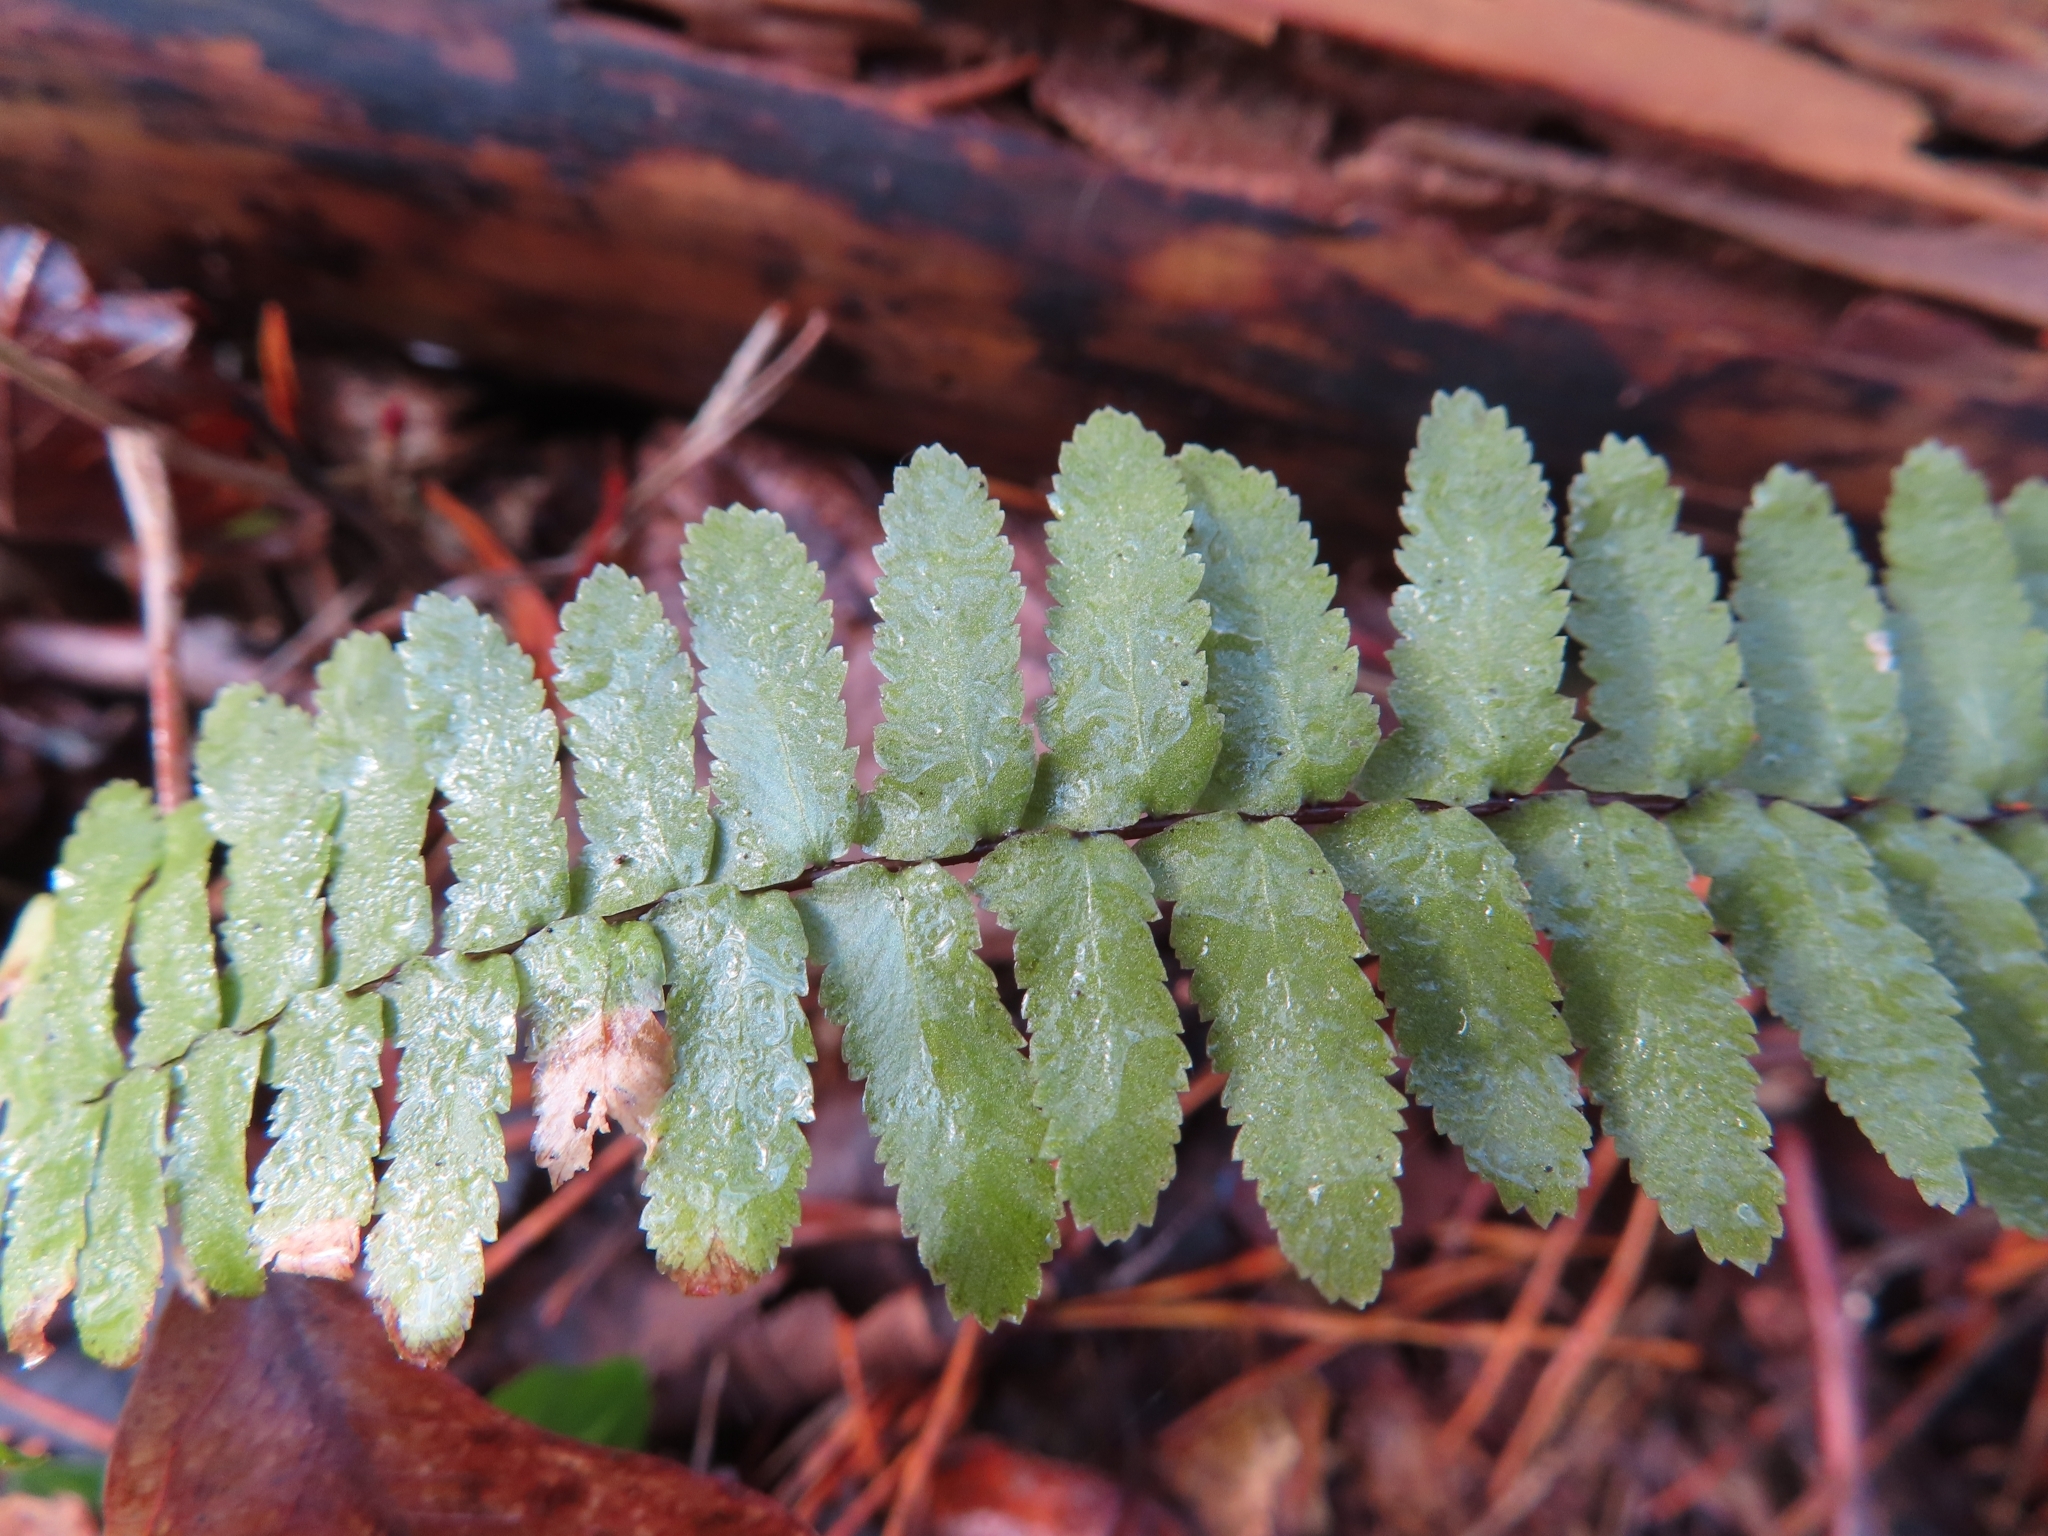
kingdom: Plantae
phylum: Tracheophyta
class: Polypodiopsida
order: Polypodiales
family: Aspleniaceae
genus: Asplenium
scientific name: Asplenium platyneuron
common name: Ebony spleenwort
